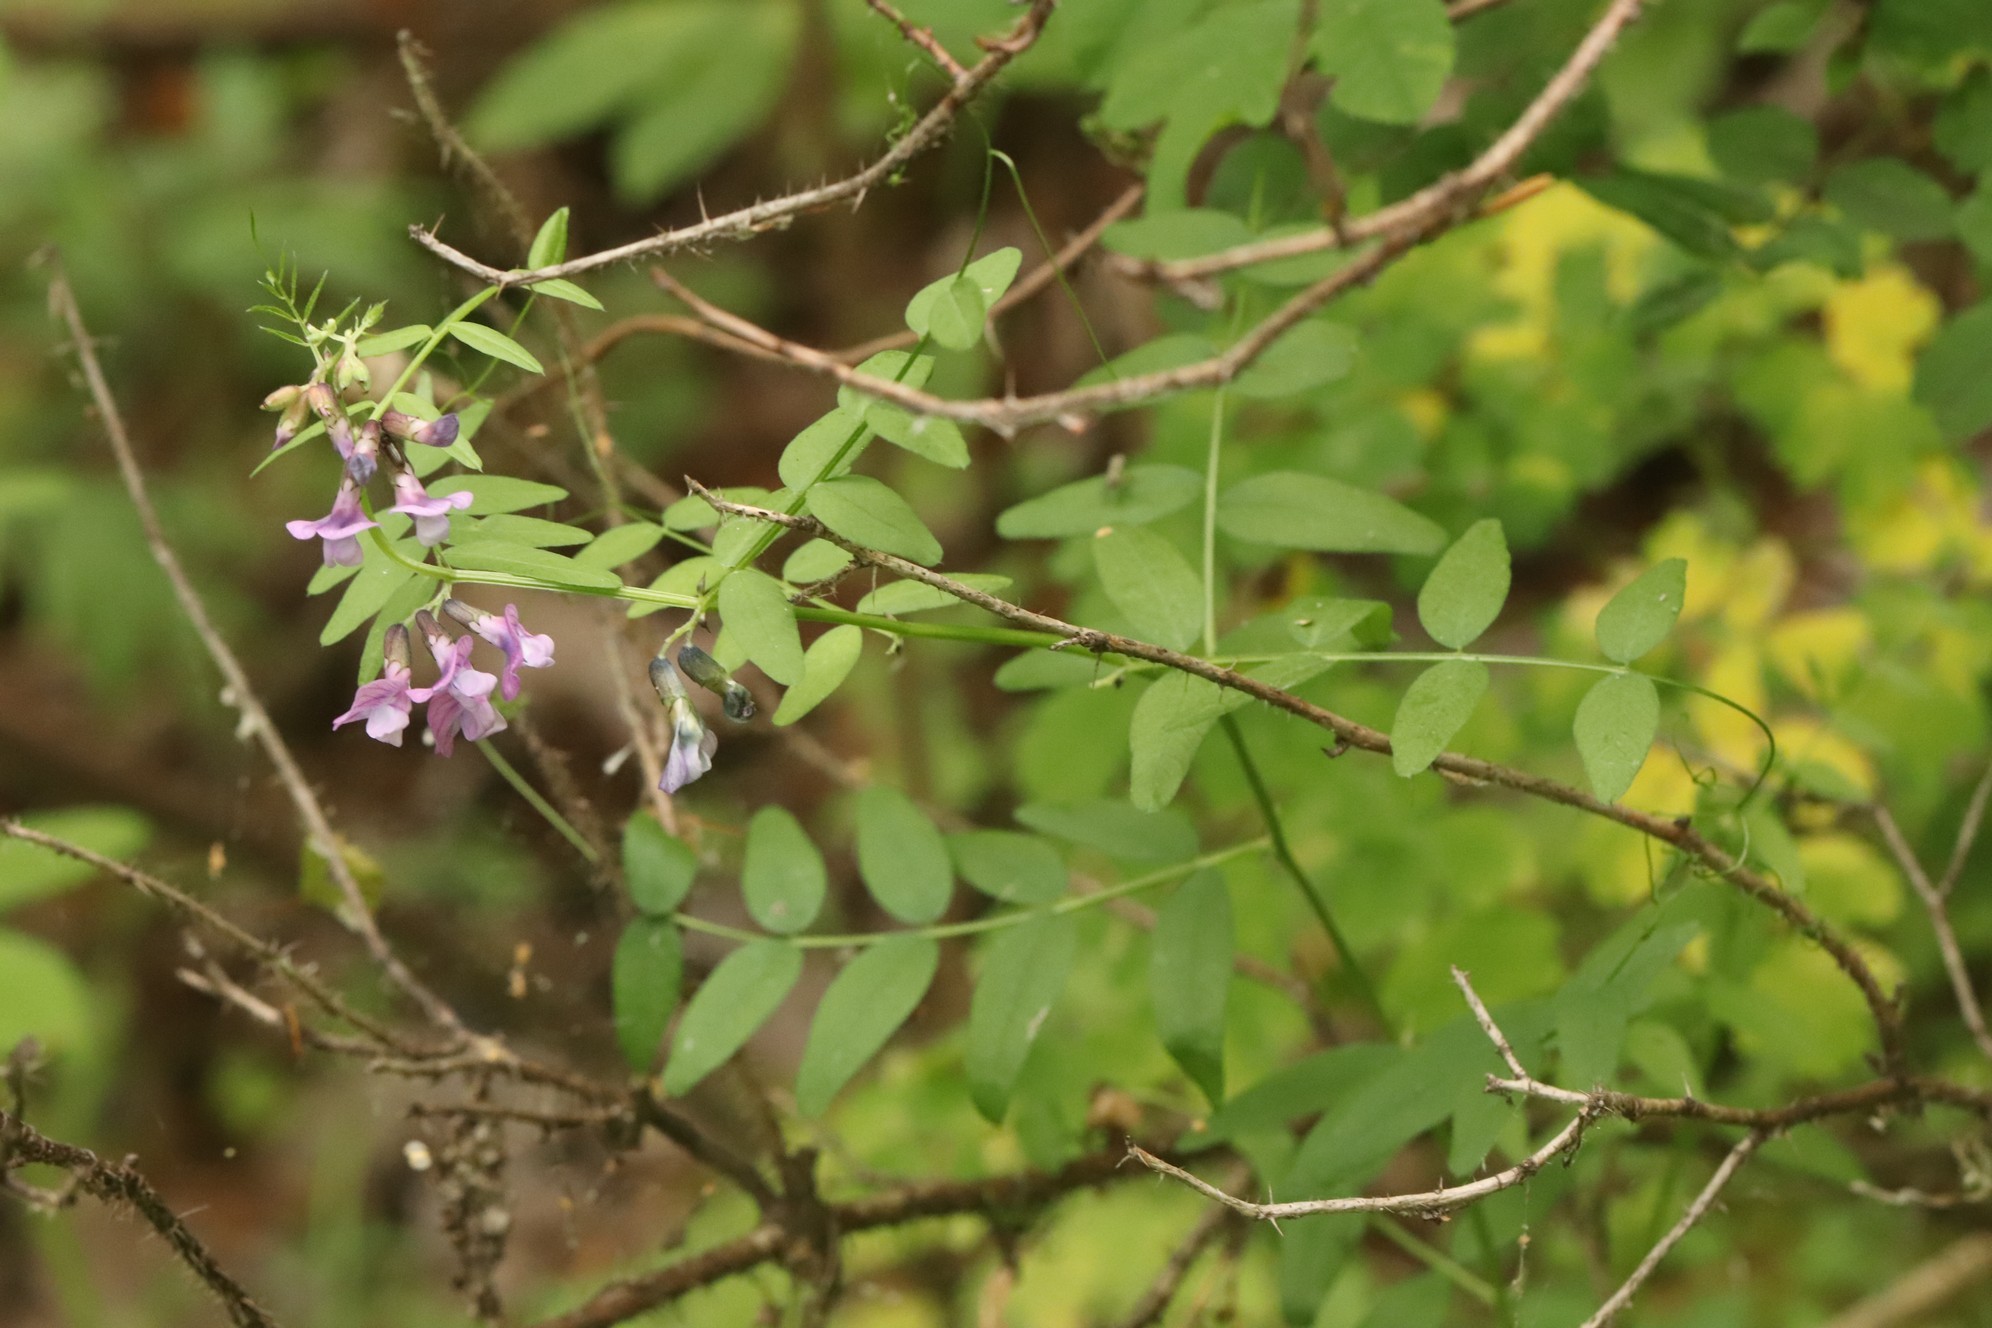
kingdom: Plantae
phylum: Tracheophyta
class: Magnoliopsida
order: Fabales
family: Fabaceae
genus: Vicia
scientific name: Vicia sepium
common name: Bush vetch
